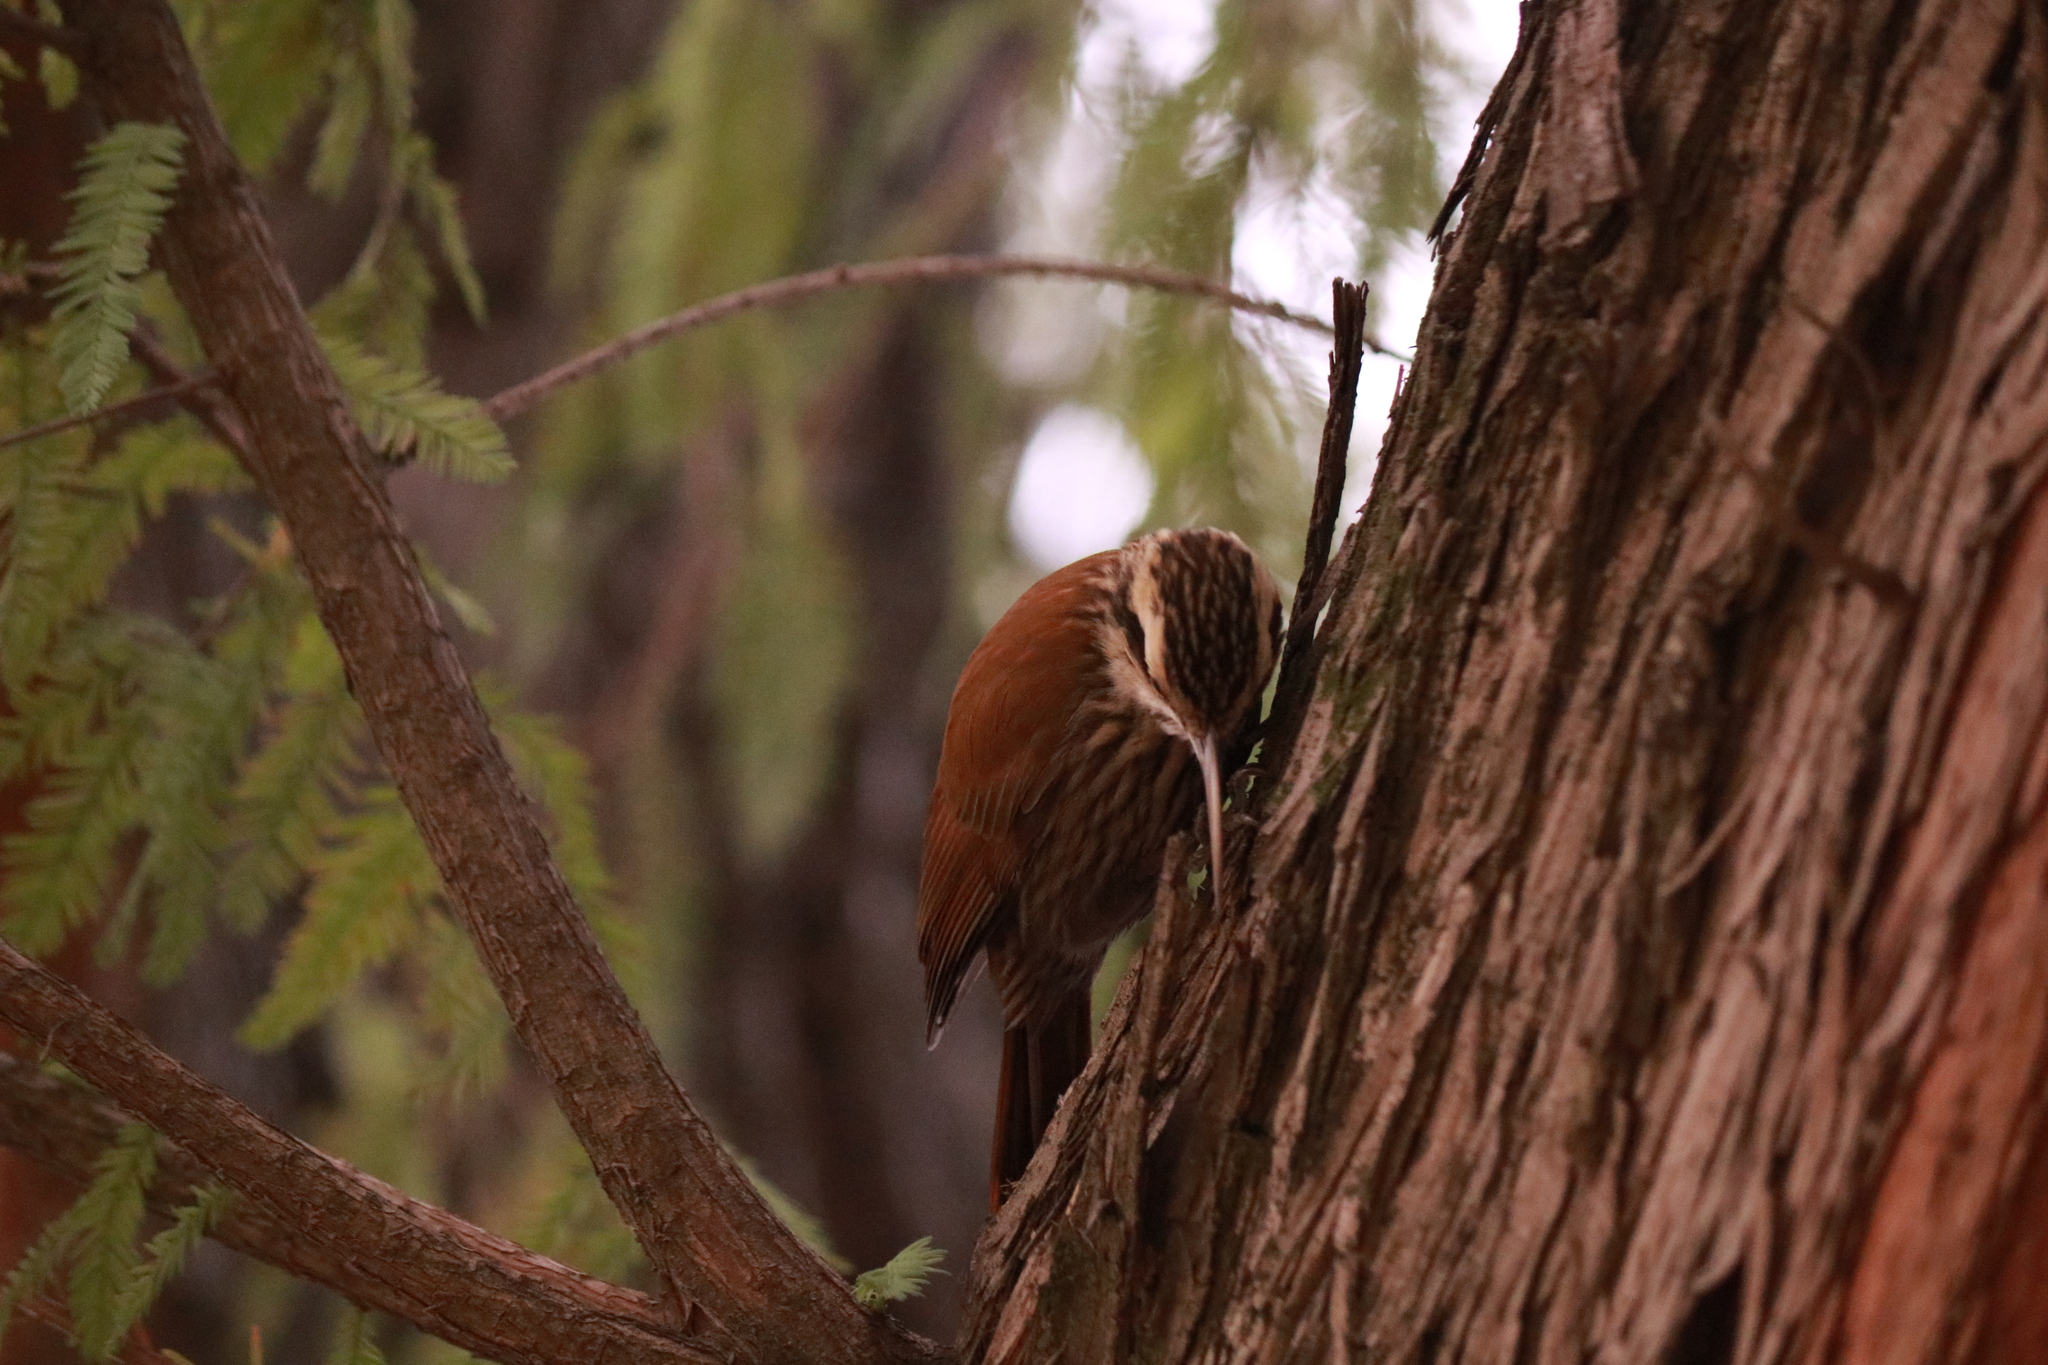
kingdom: Animalia
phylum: Chordata
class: Aves
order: Passeriformes
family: Furnariidae
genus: Lepidocolaptes
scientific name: Lepidocolaptes angustirostris
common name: Narrow-billed woodcreeper
